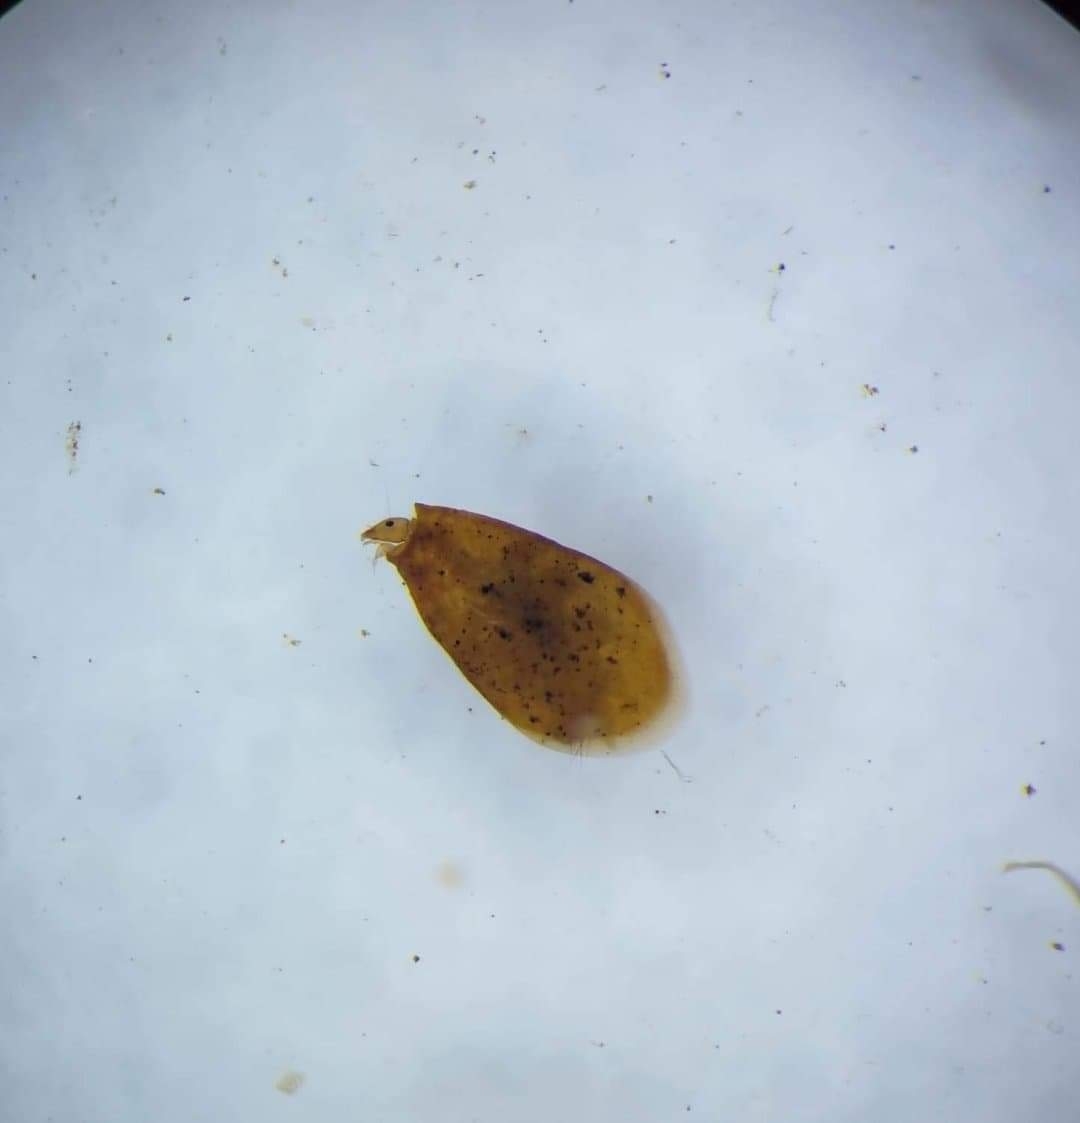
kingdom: Animalia
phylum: Arthropoda
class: Insecta
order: Trichoptera
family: Hydroptilidae
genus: Ithytrichia
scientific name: Ithytrichia lamellaris
